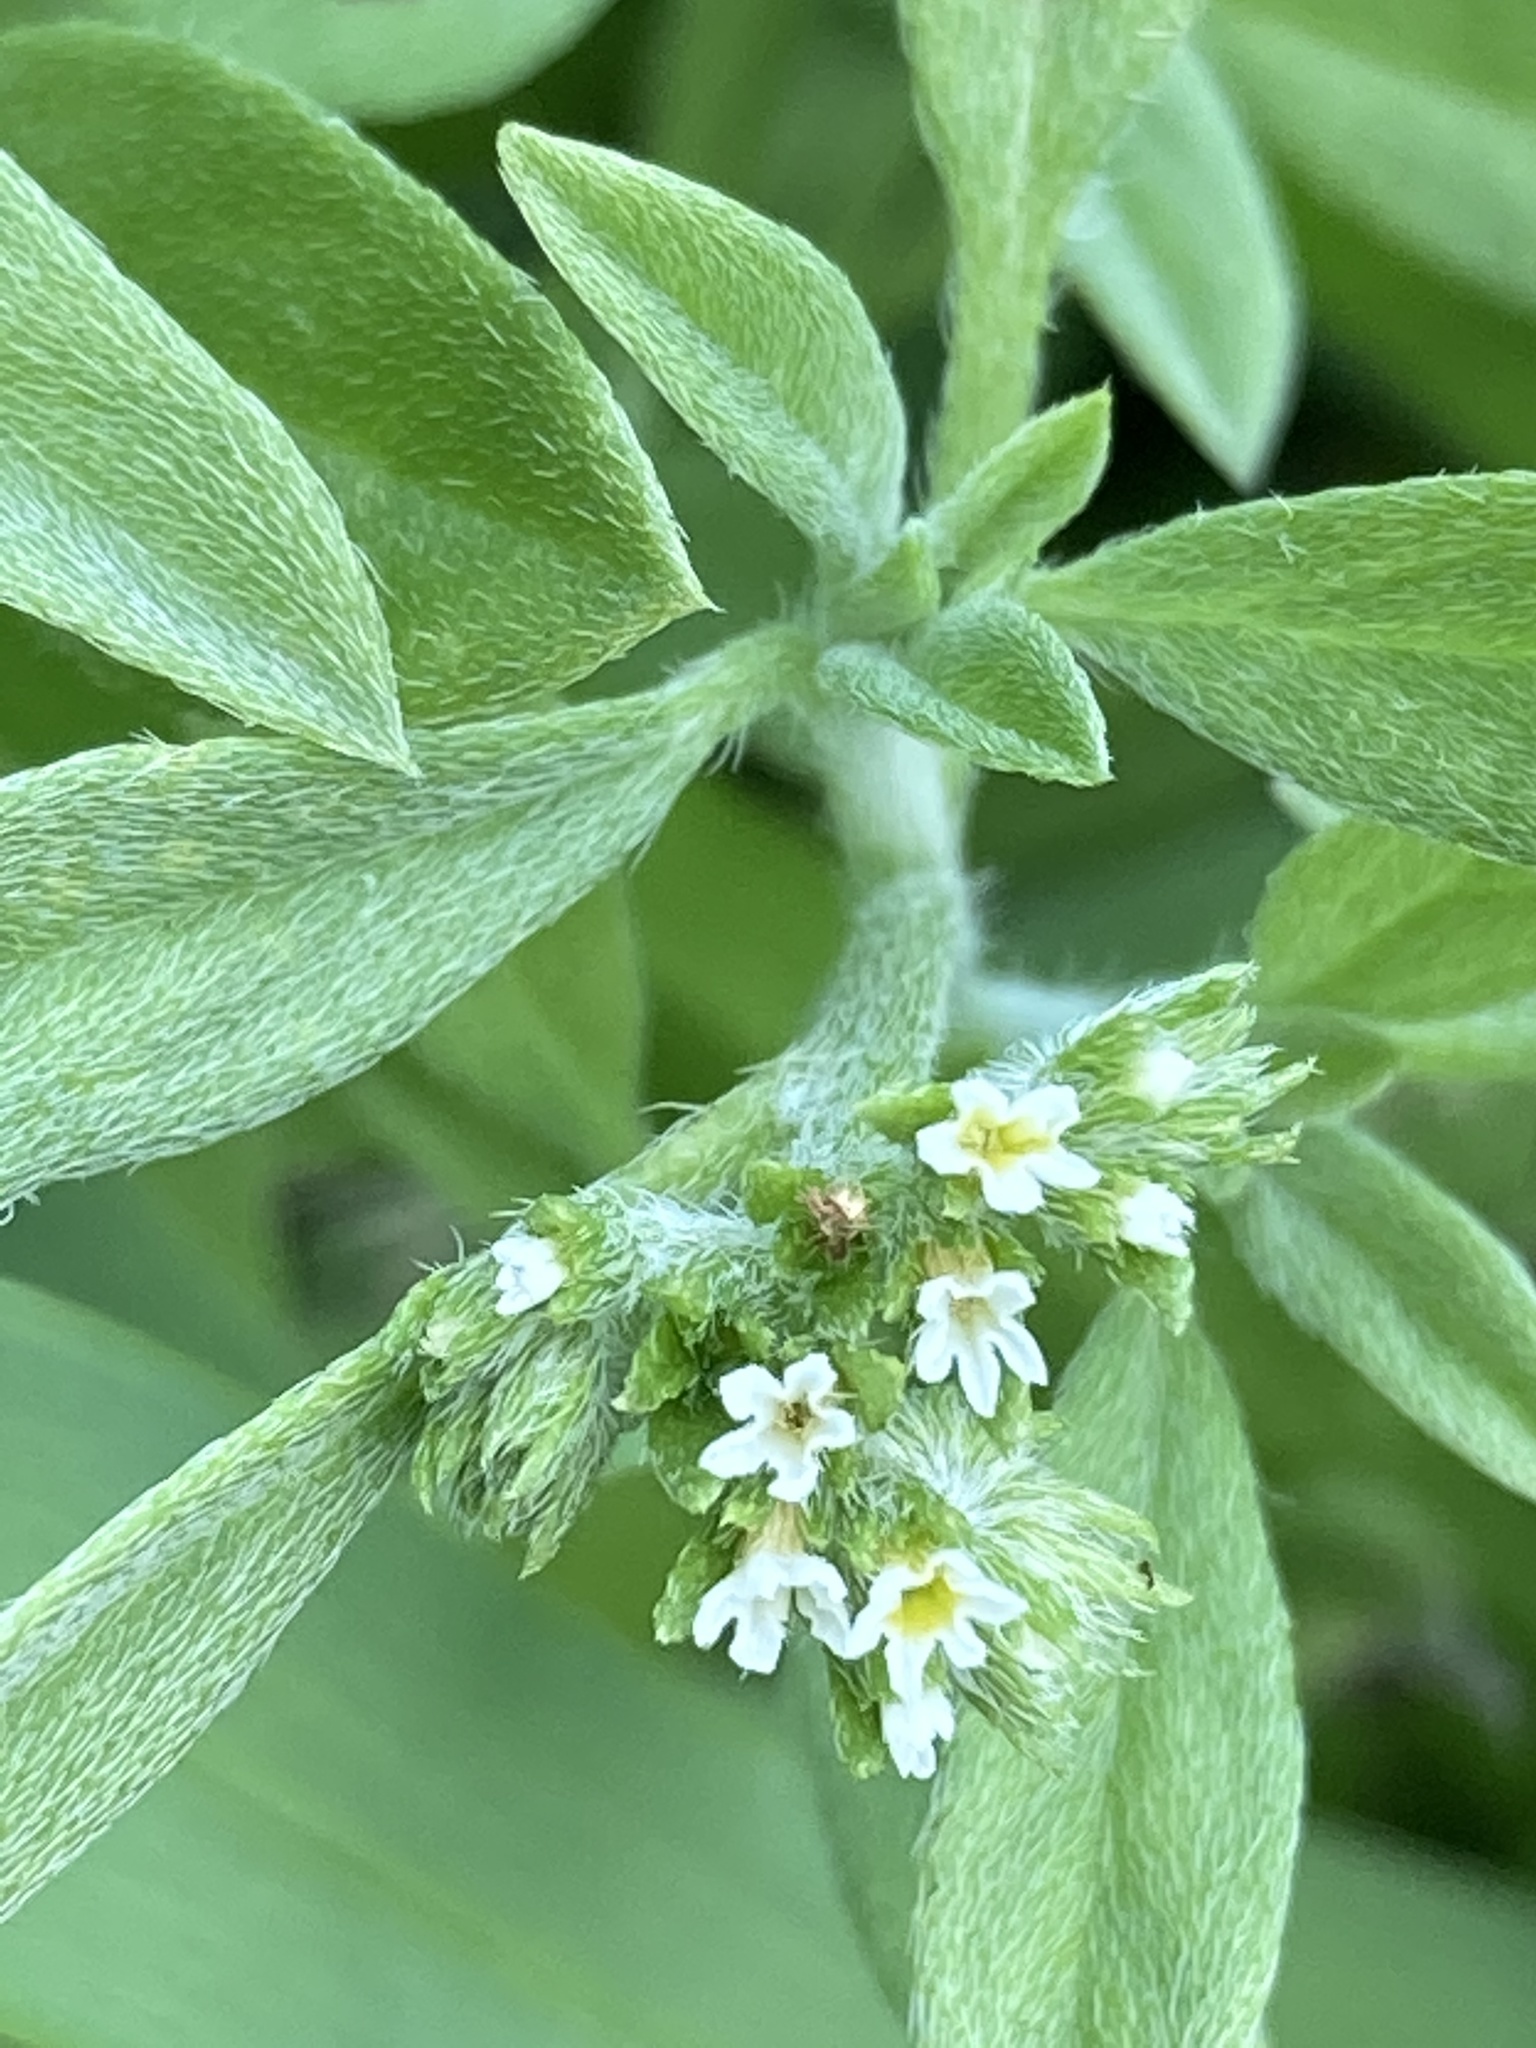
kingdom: Plantae
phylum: Tracheophyta
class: Magnoliopsida
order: Boraginales
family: Heliotropiaceae
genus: Euploca
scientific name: Euploca procumbens
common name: Fourspike heliotrope
